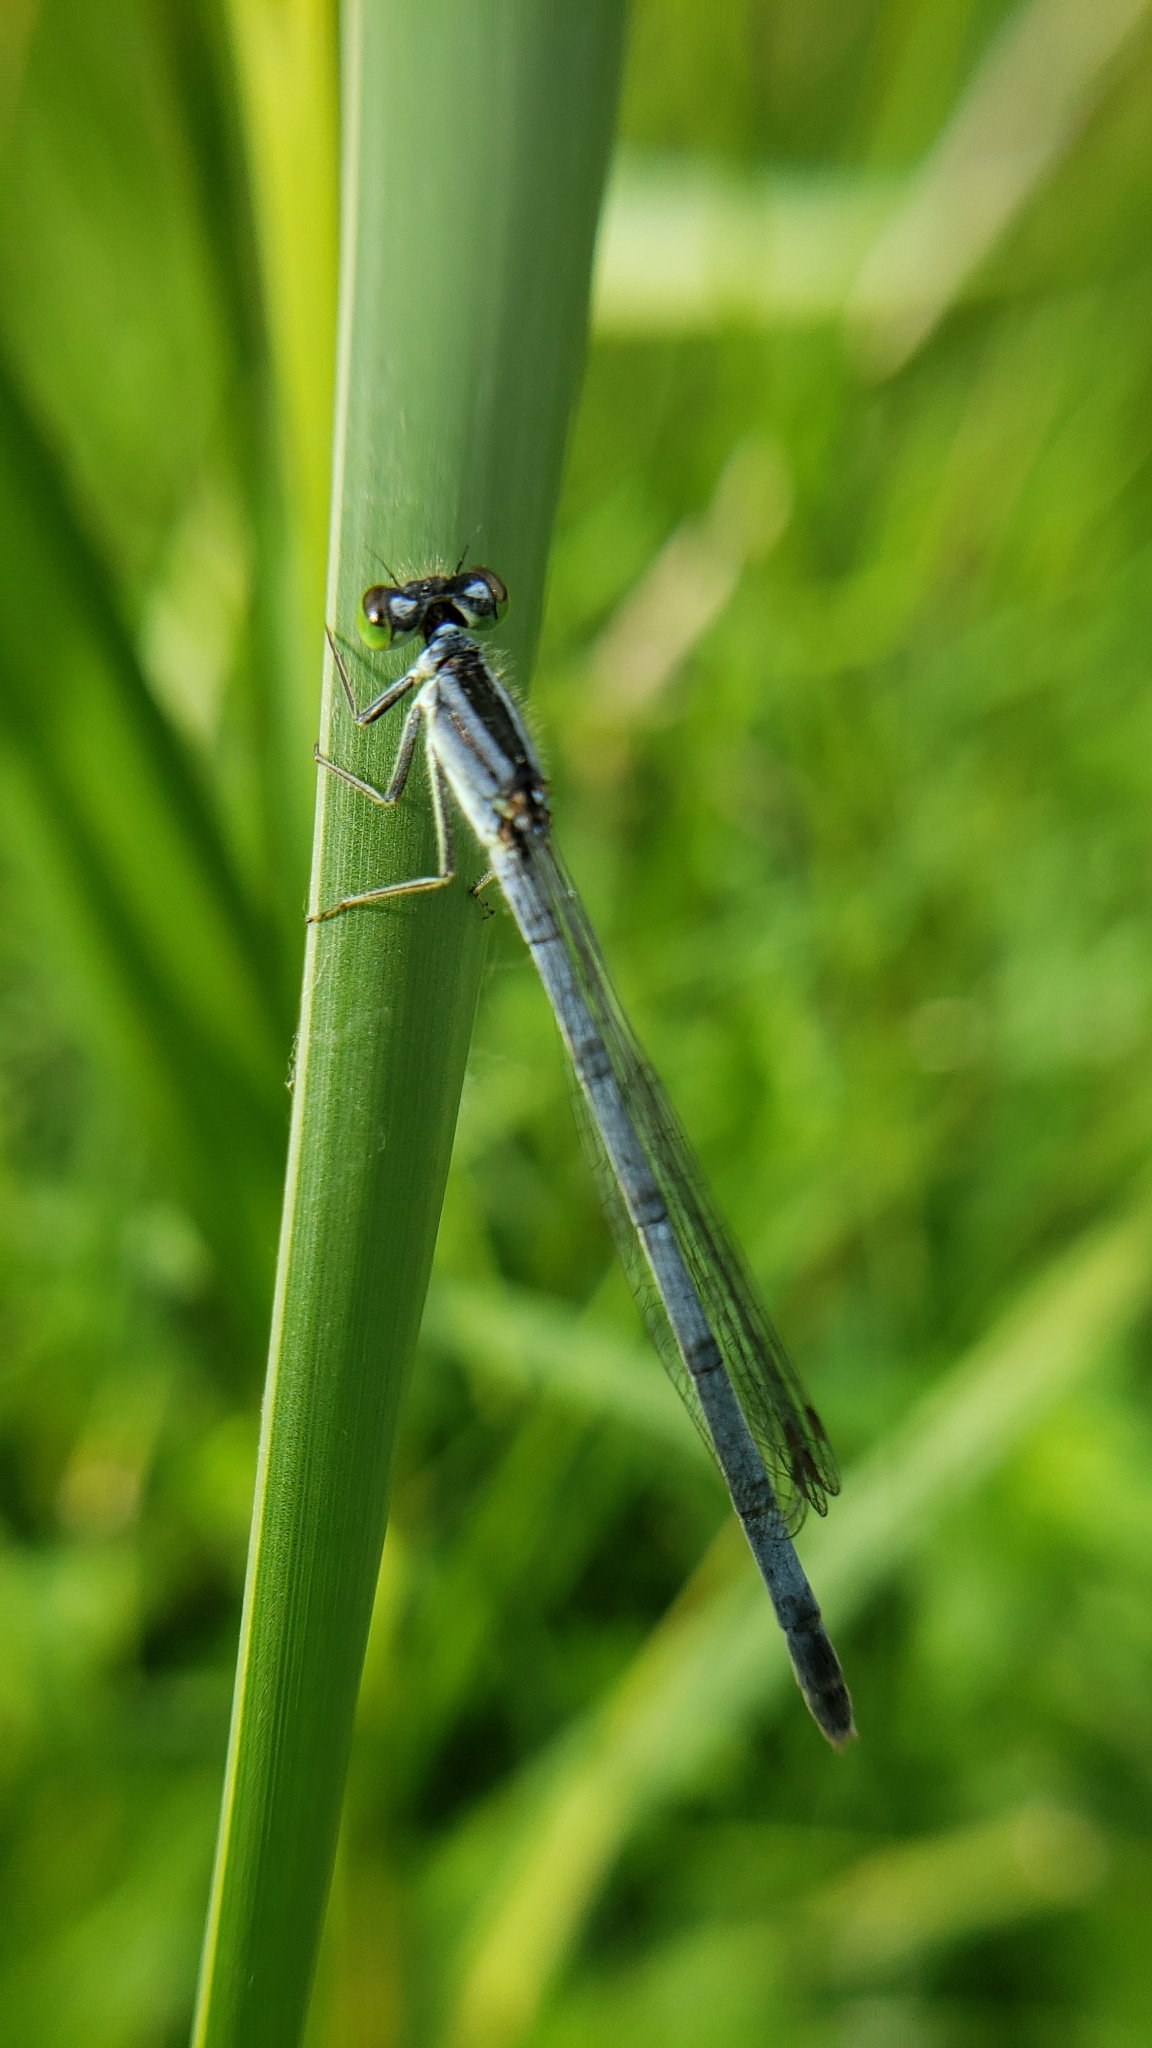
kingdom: Animalia
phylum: Arthropoda
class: Insecta
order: Odonata
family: Coenagrionidae
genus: Ischnura
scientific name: Ischnura verticalis
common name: Eastern forktail
